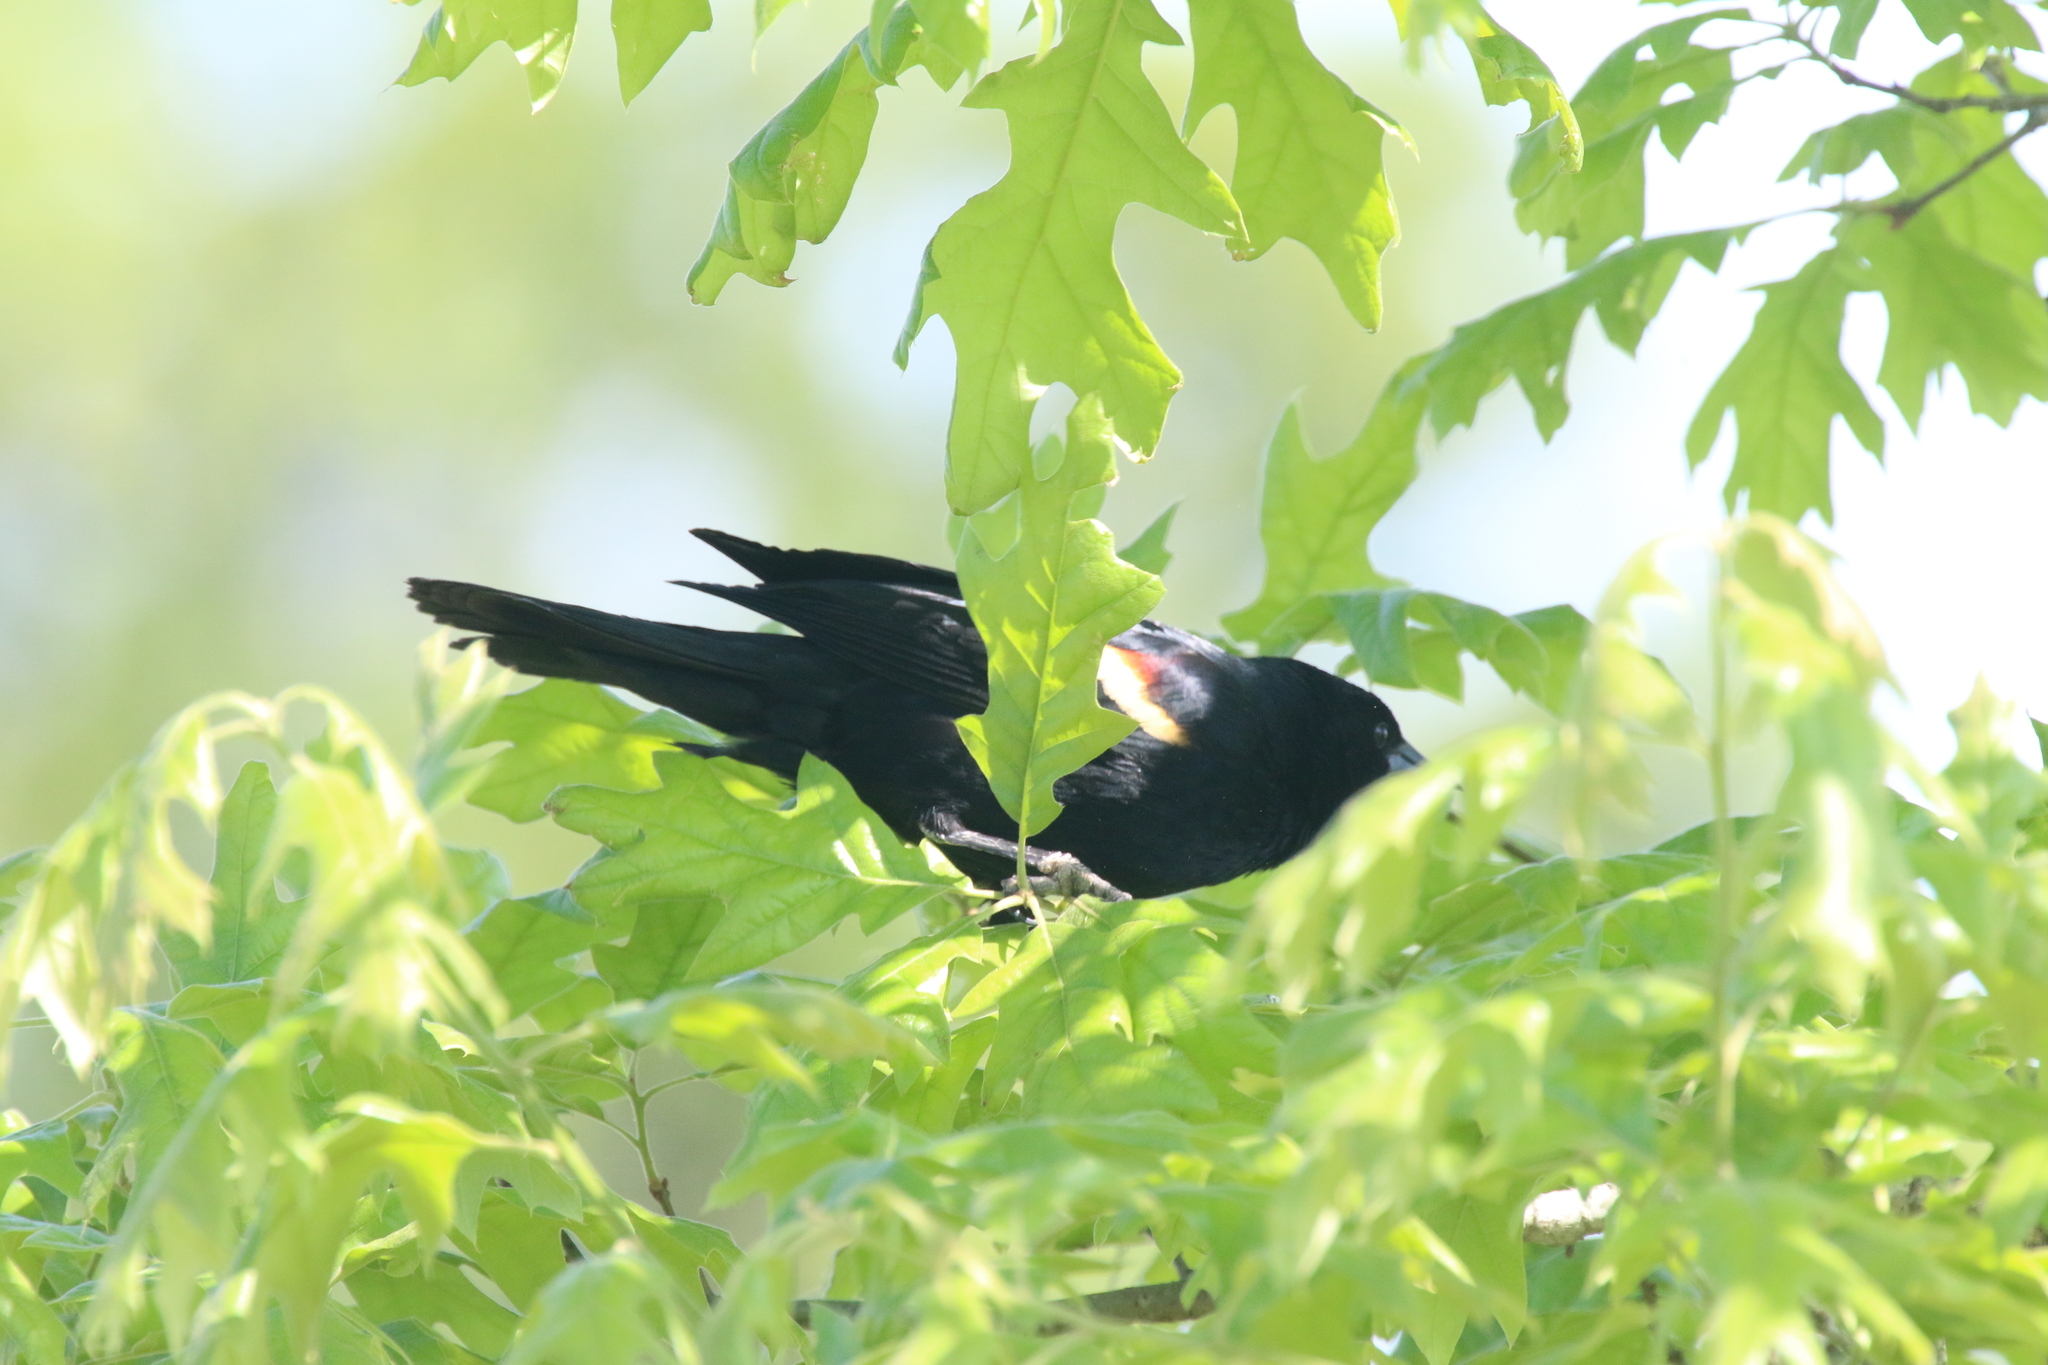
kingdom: Animalia
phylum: Chordata
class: Aves
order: Passeriformes
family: Icteridae
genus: Agelaius
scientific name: Agelaius phoeniceus
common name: Red-winged blackbird
